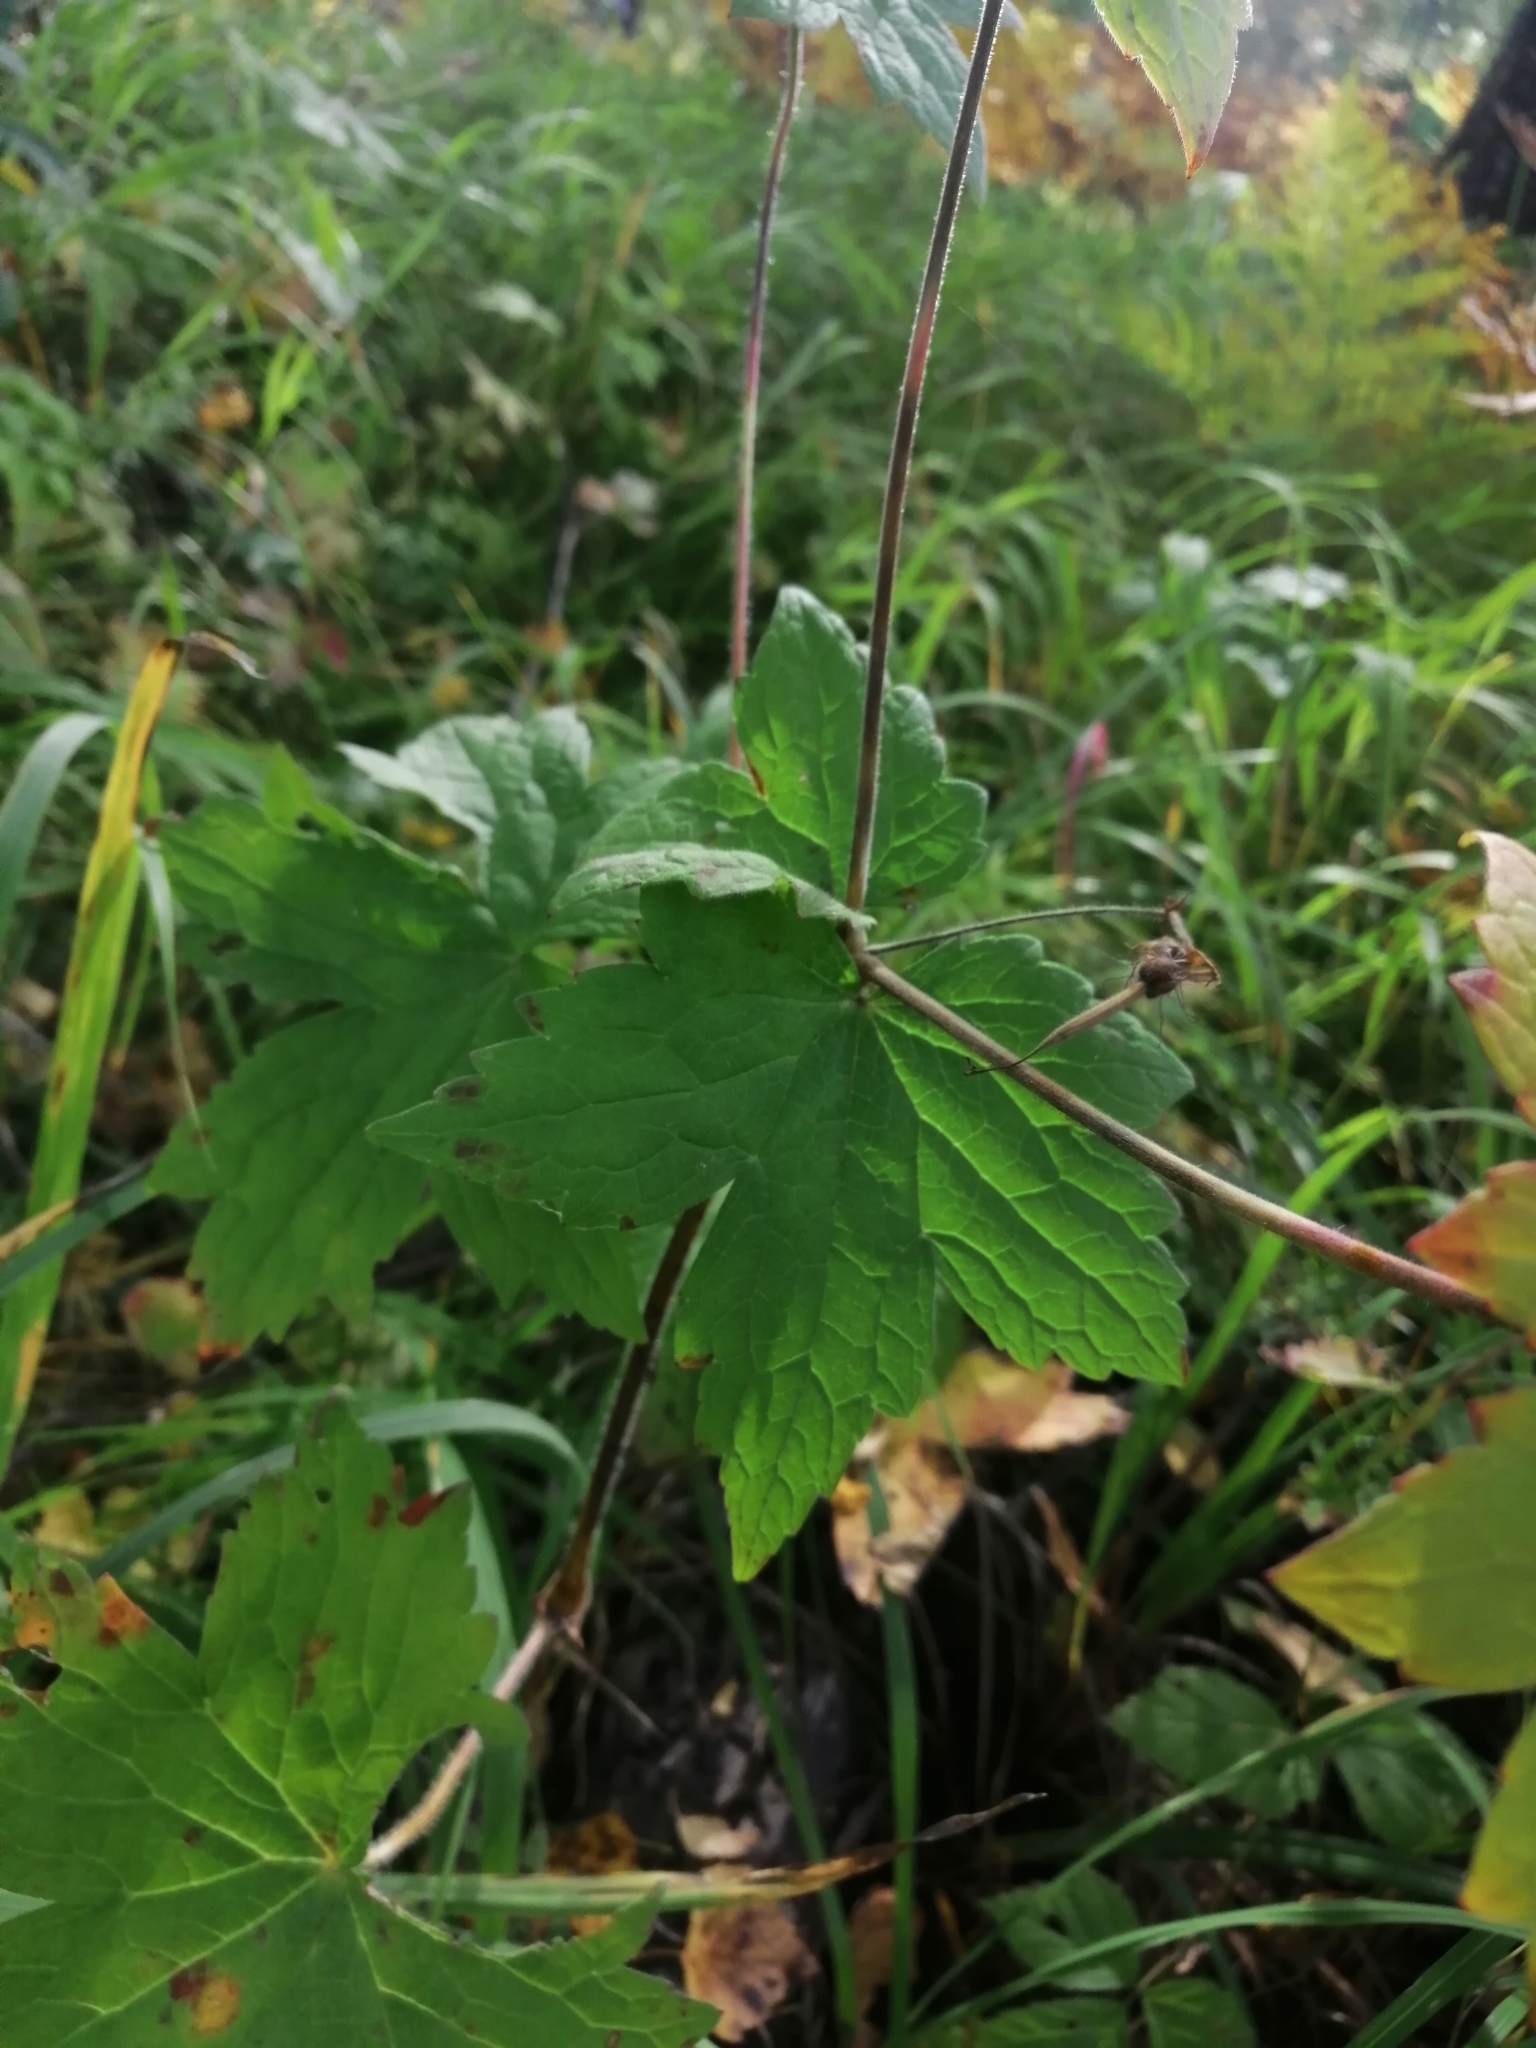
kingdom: Plantae
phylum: Tracheophyta
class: Magnoliopsida
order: Geraniales
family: Geraniaceae
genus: Geranium
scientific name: Geranium platyanthum
